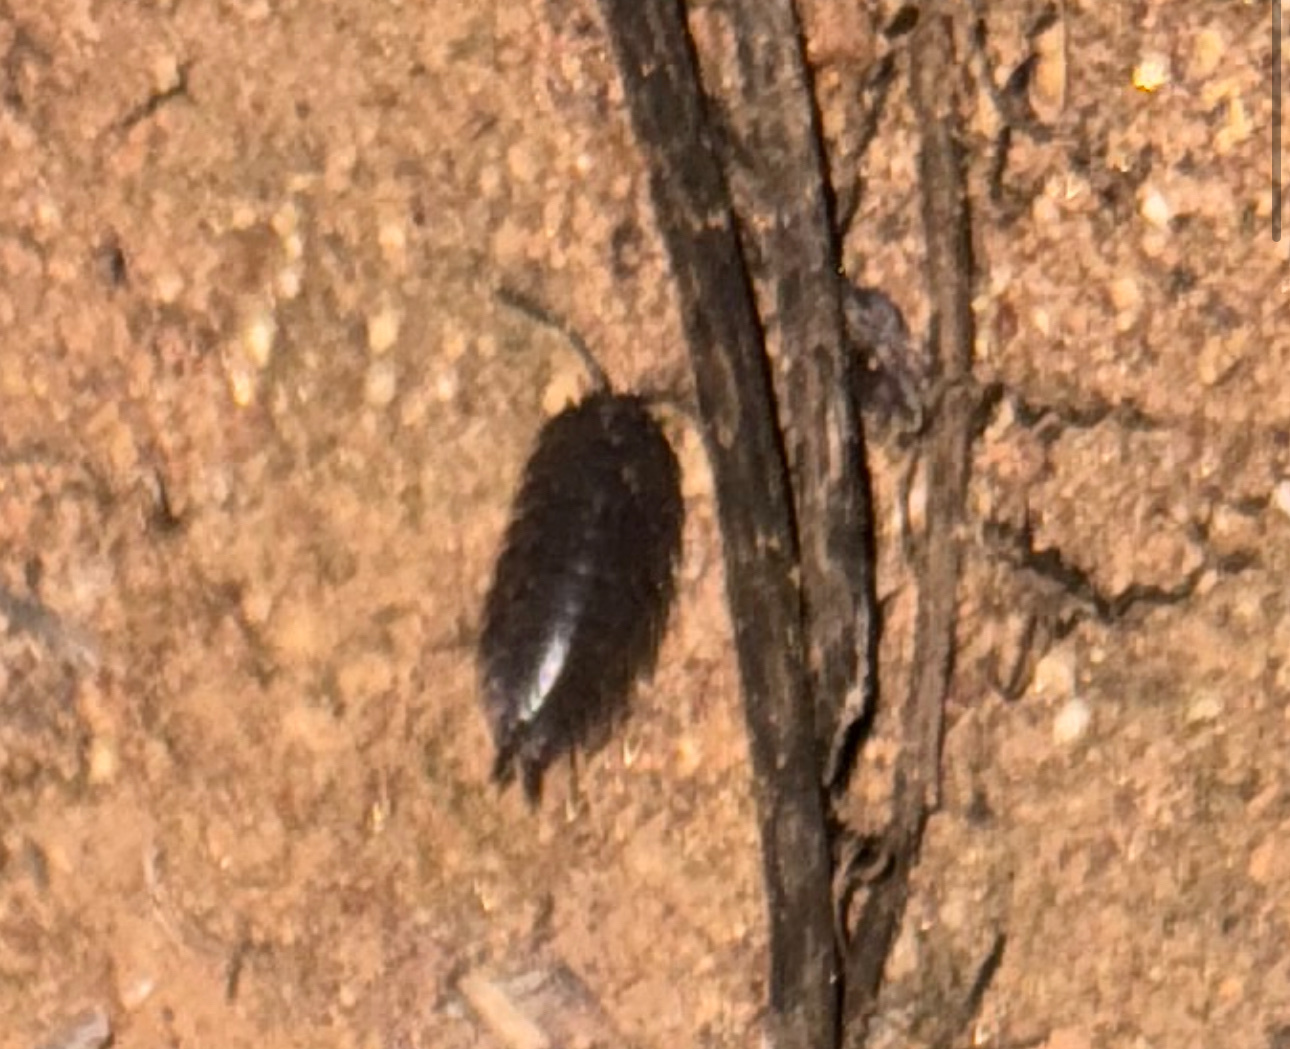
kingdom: Animalia
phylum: Arthropoda
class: Malacostraca
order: Isopoda
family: Porcellionidae
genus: Porcellio
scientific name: Porcellio laevis
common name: Swift woodlouse
